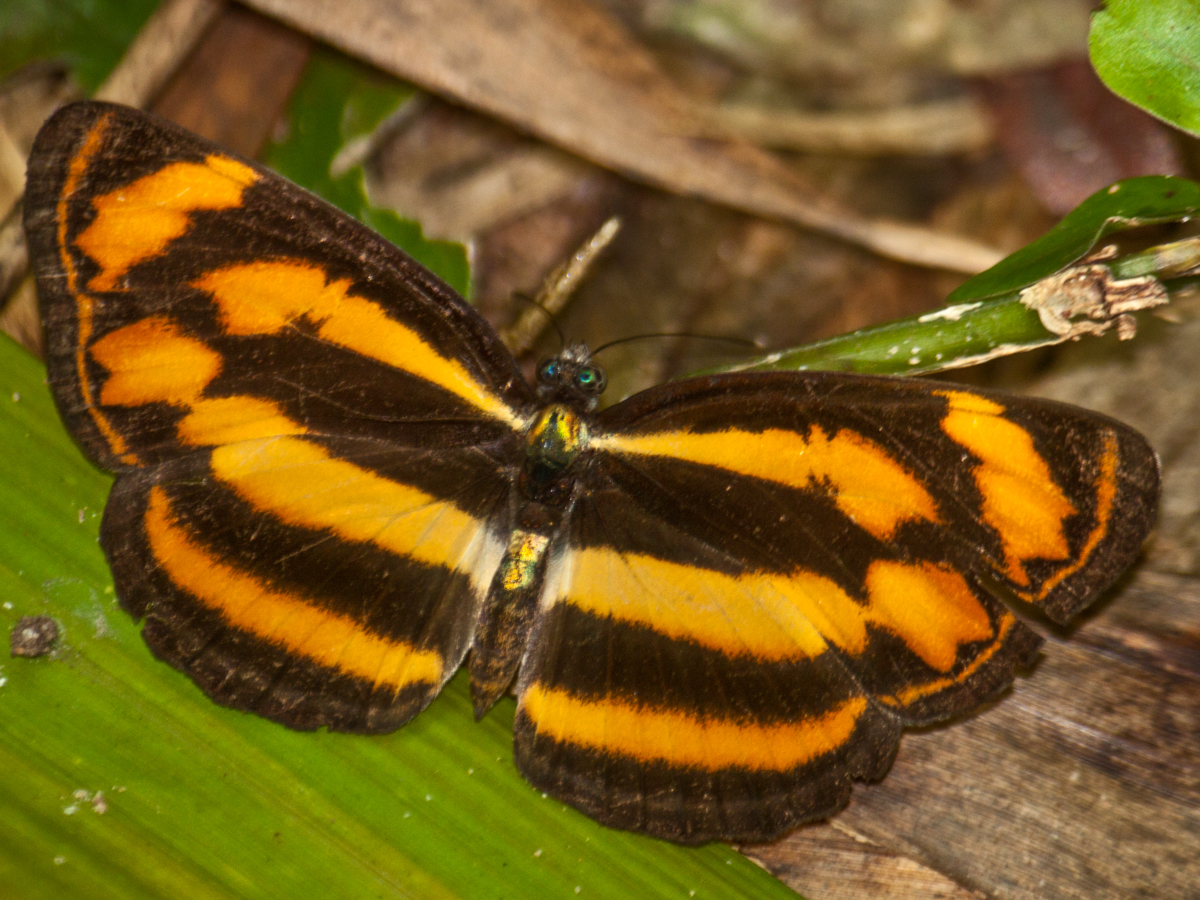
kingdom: Animalia
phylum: Arthropoda
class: Insecta
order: Lepidoptera
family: Nymphalidae
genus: Lasippa
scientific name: Lasippa
